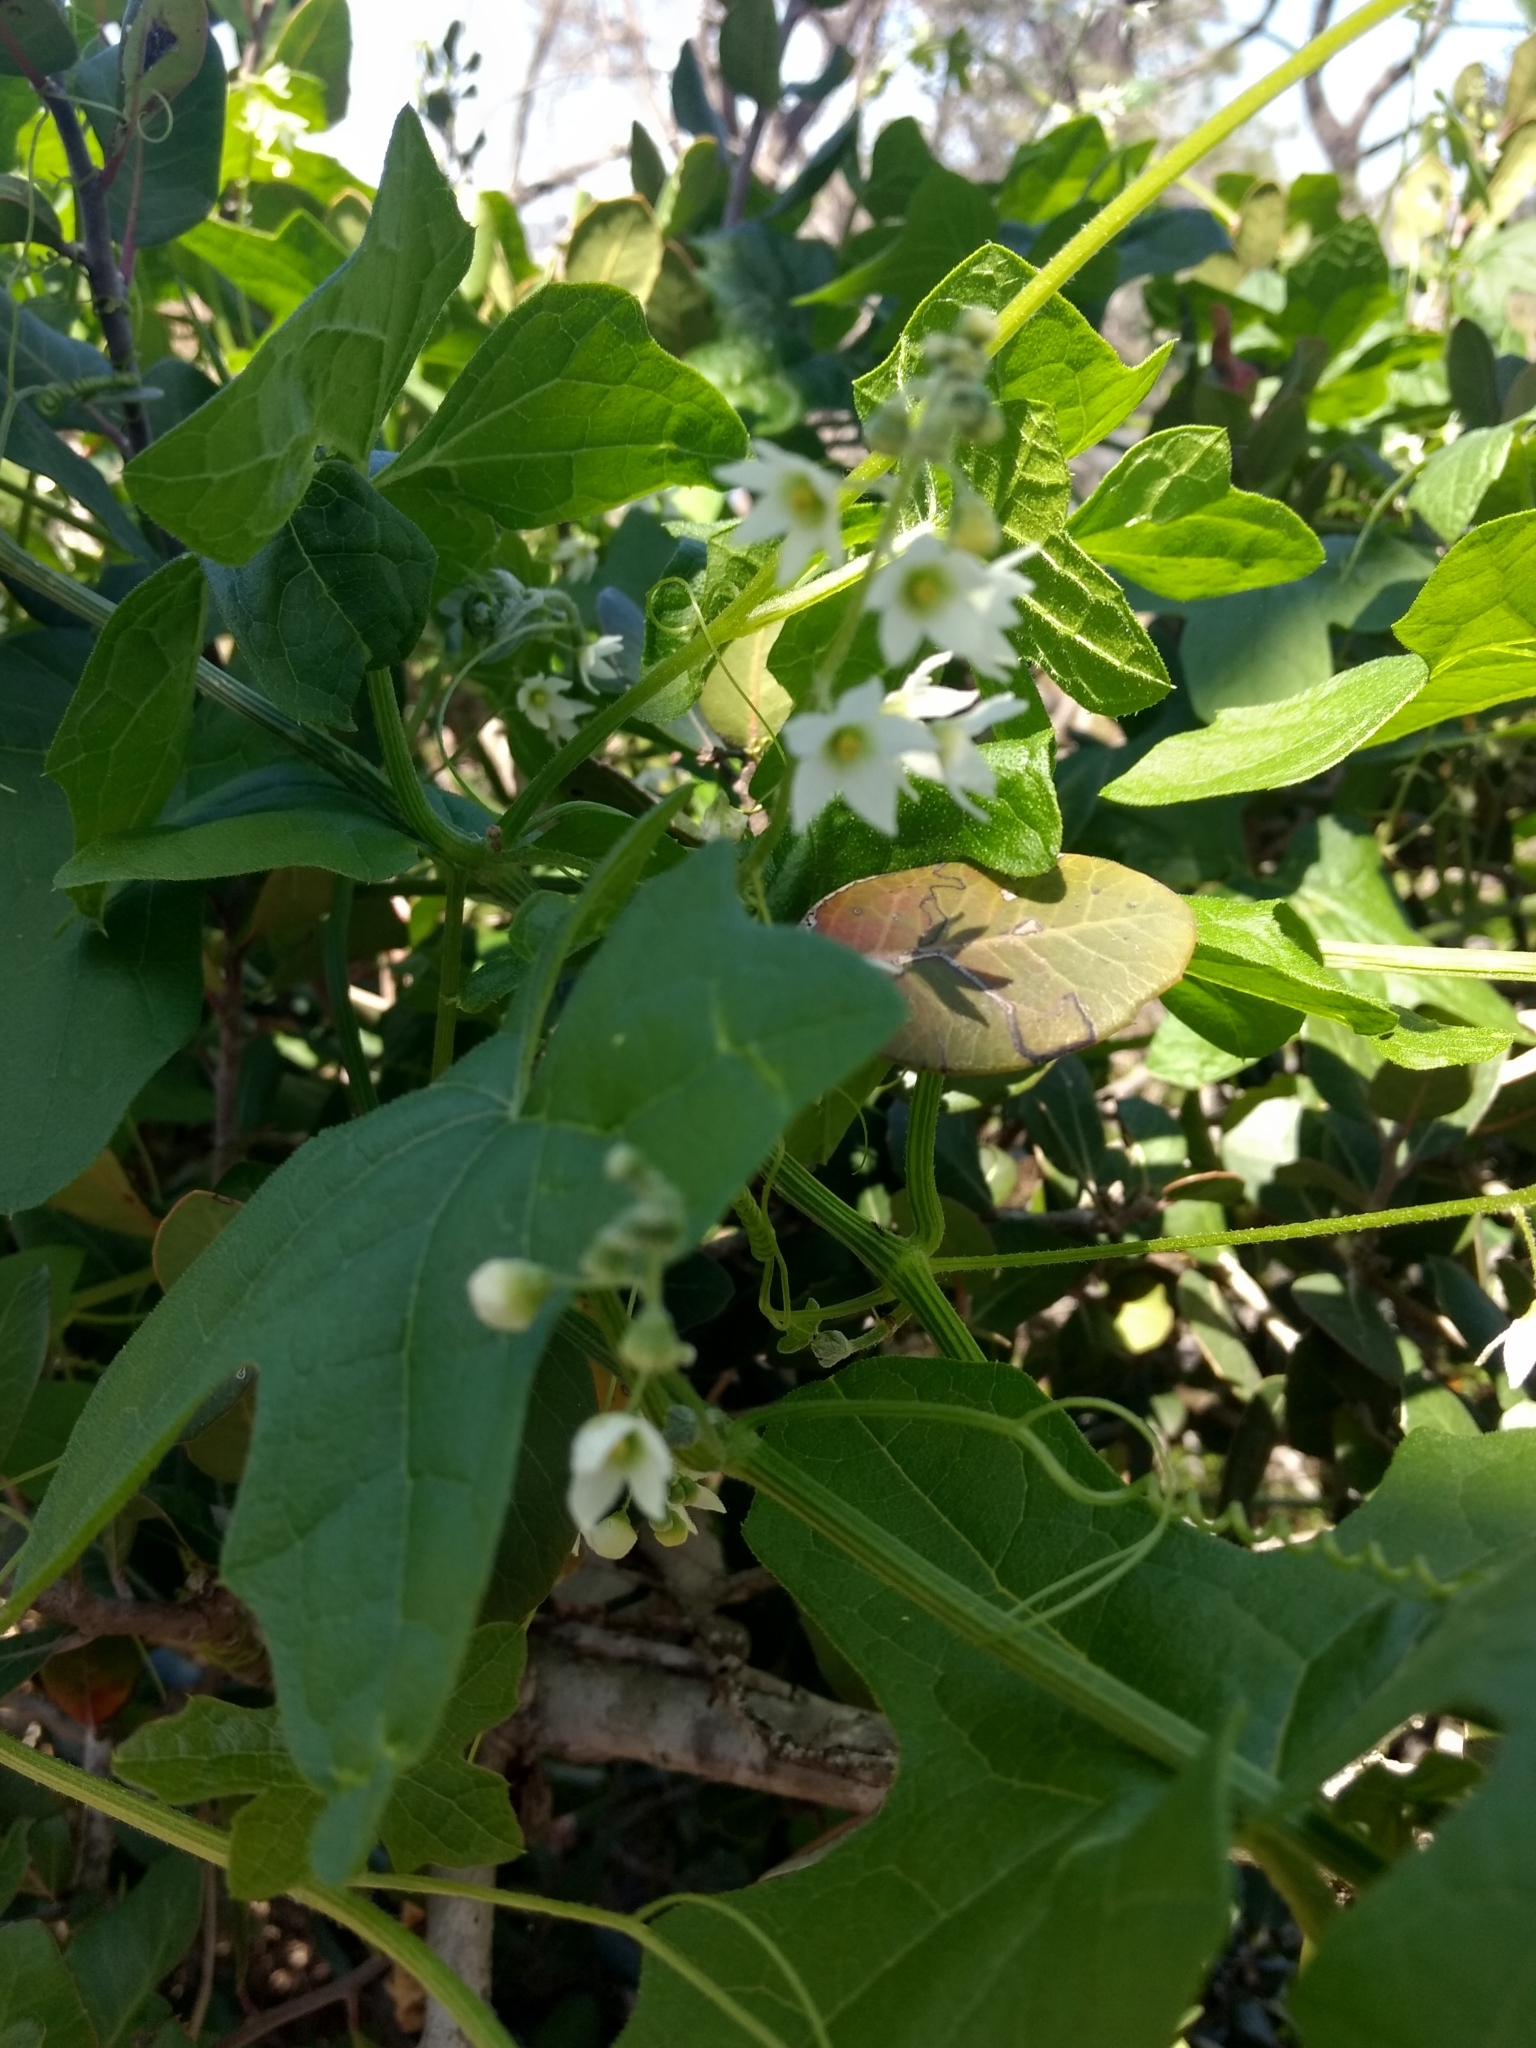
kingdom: Plantae
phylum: Tracheophyta
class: Magnoliopsida
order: Cucurbitales
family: Cucurbitaceae
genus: Marah
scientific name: Marah macrocarpa
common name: Cucamonga manroot
